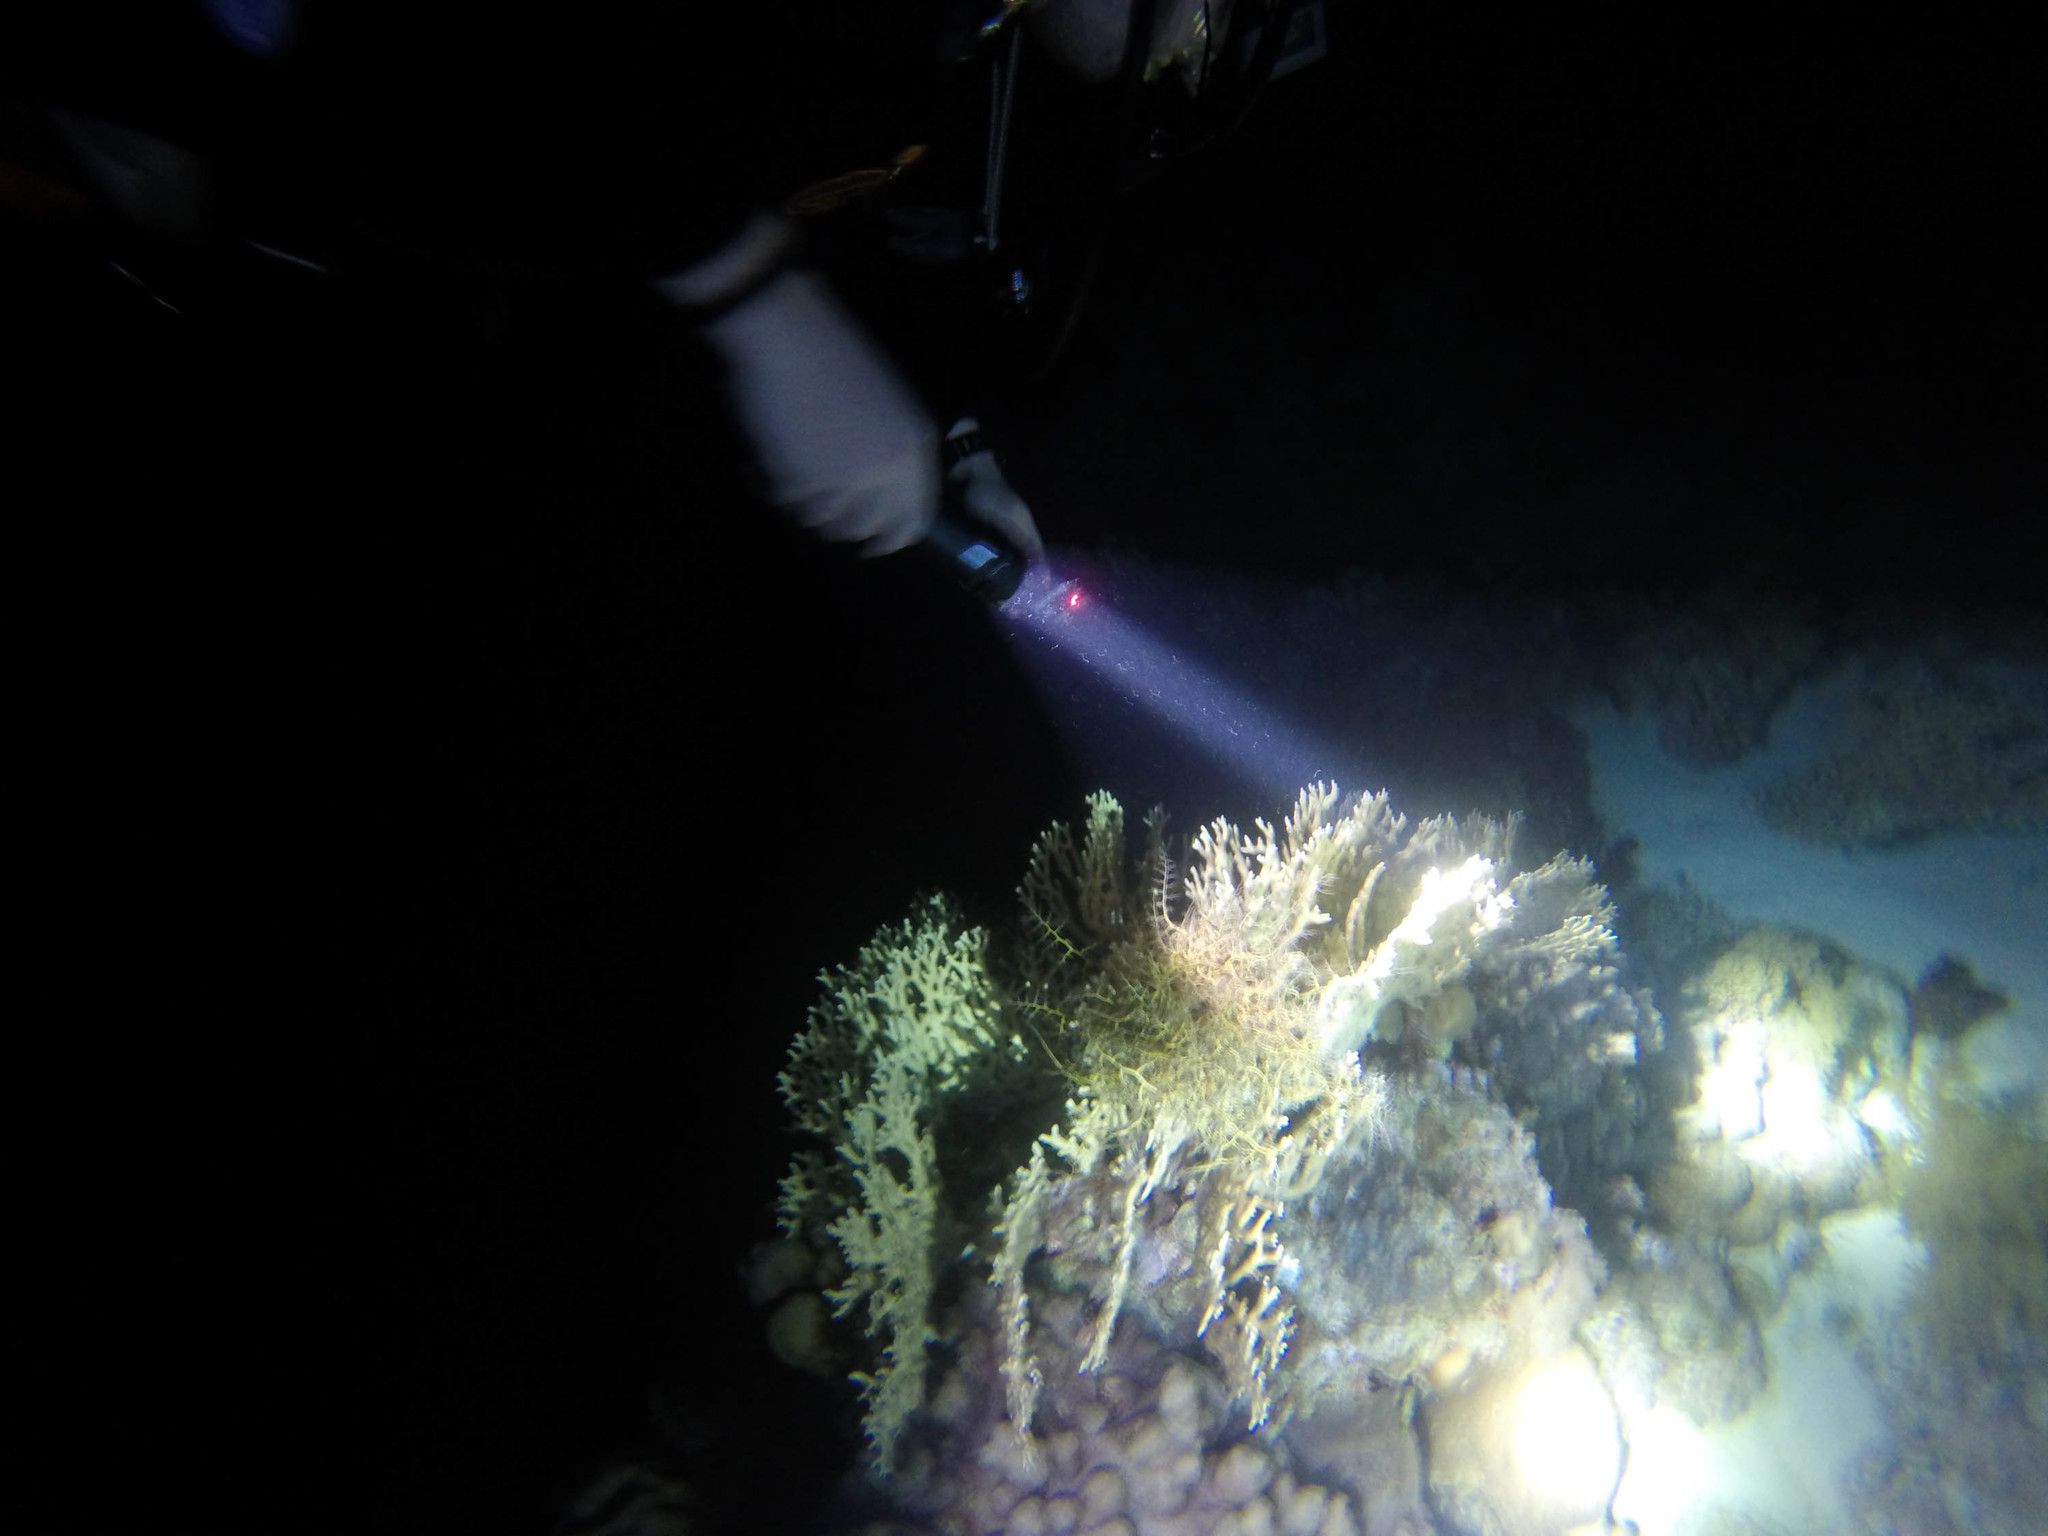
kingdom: Animalia
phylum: Echinodermata
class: Ophiuroidea
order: Euryalida
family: Gorgonocephalidae
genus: Astroboa
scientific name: Astroboa nuda
